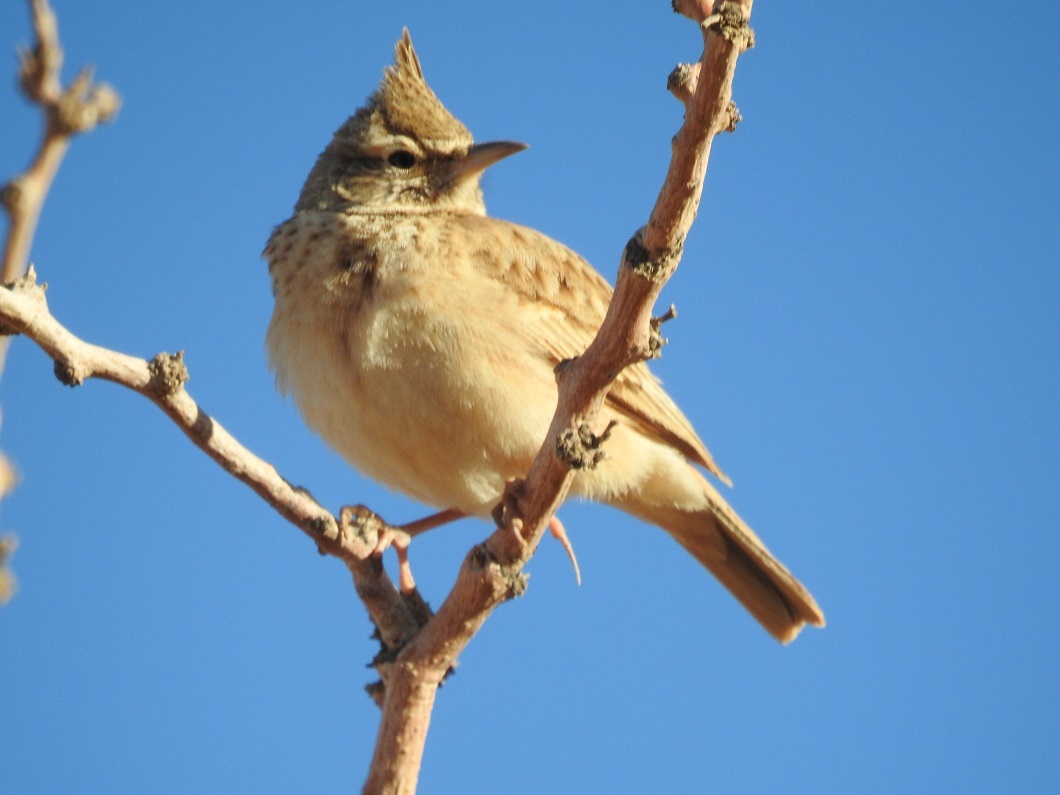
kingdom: Animalia
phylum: Chordata
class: Aves
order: Passeriformes
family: Alaudidae
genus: Galerida
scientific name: Galerida cristata
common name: Crested lark
